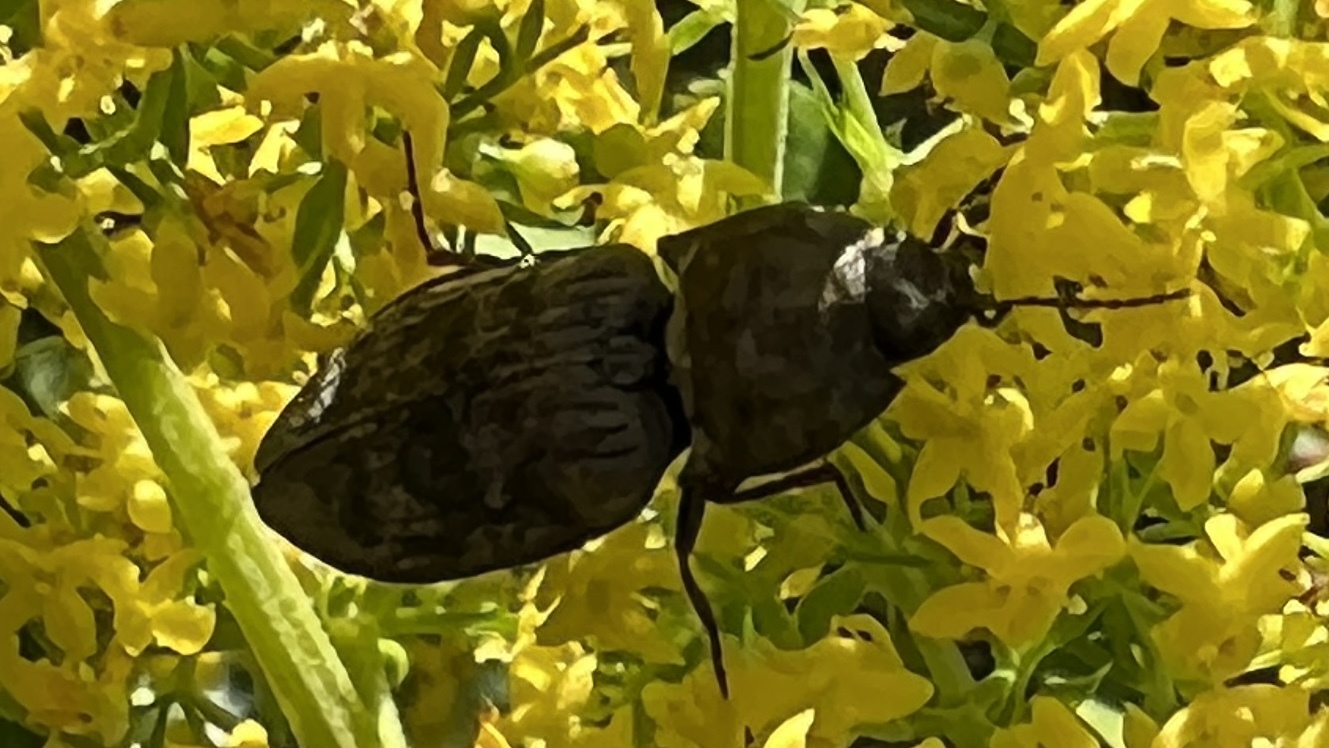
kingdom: Animalia
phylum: Arthropoda
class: Insecta
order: Coleoptera
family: Elateridae
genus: Prosternon
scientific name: Prosternon tessellatum
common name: Chequered click beetle
